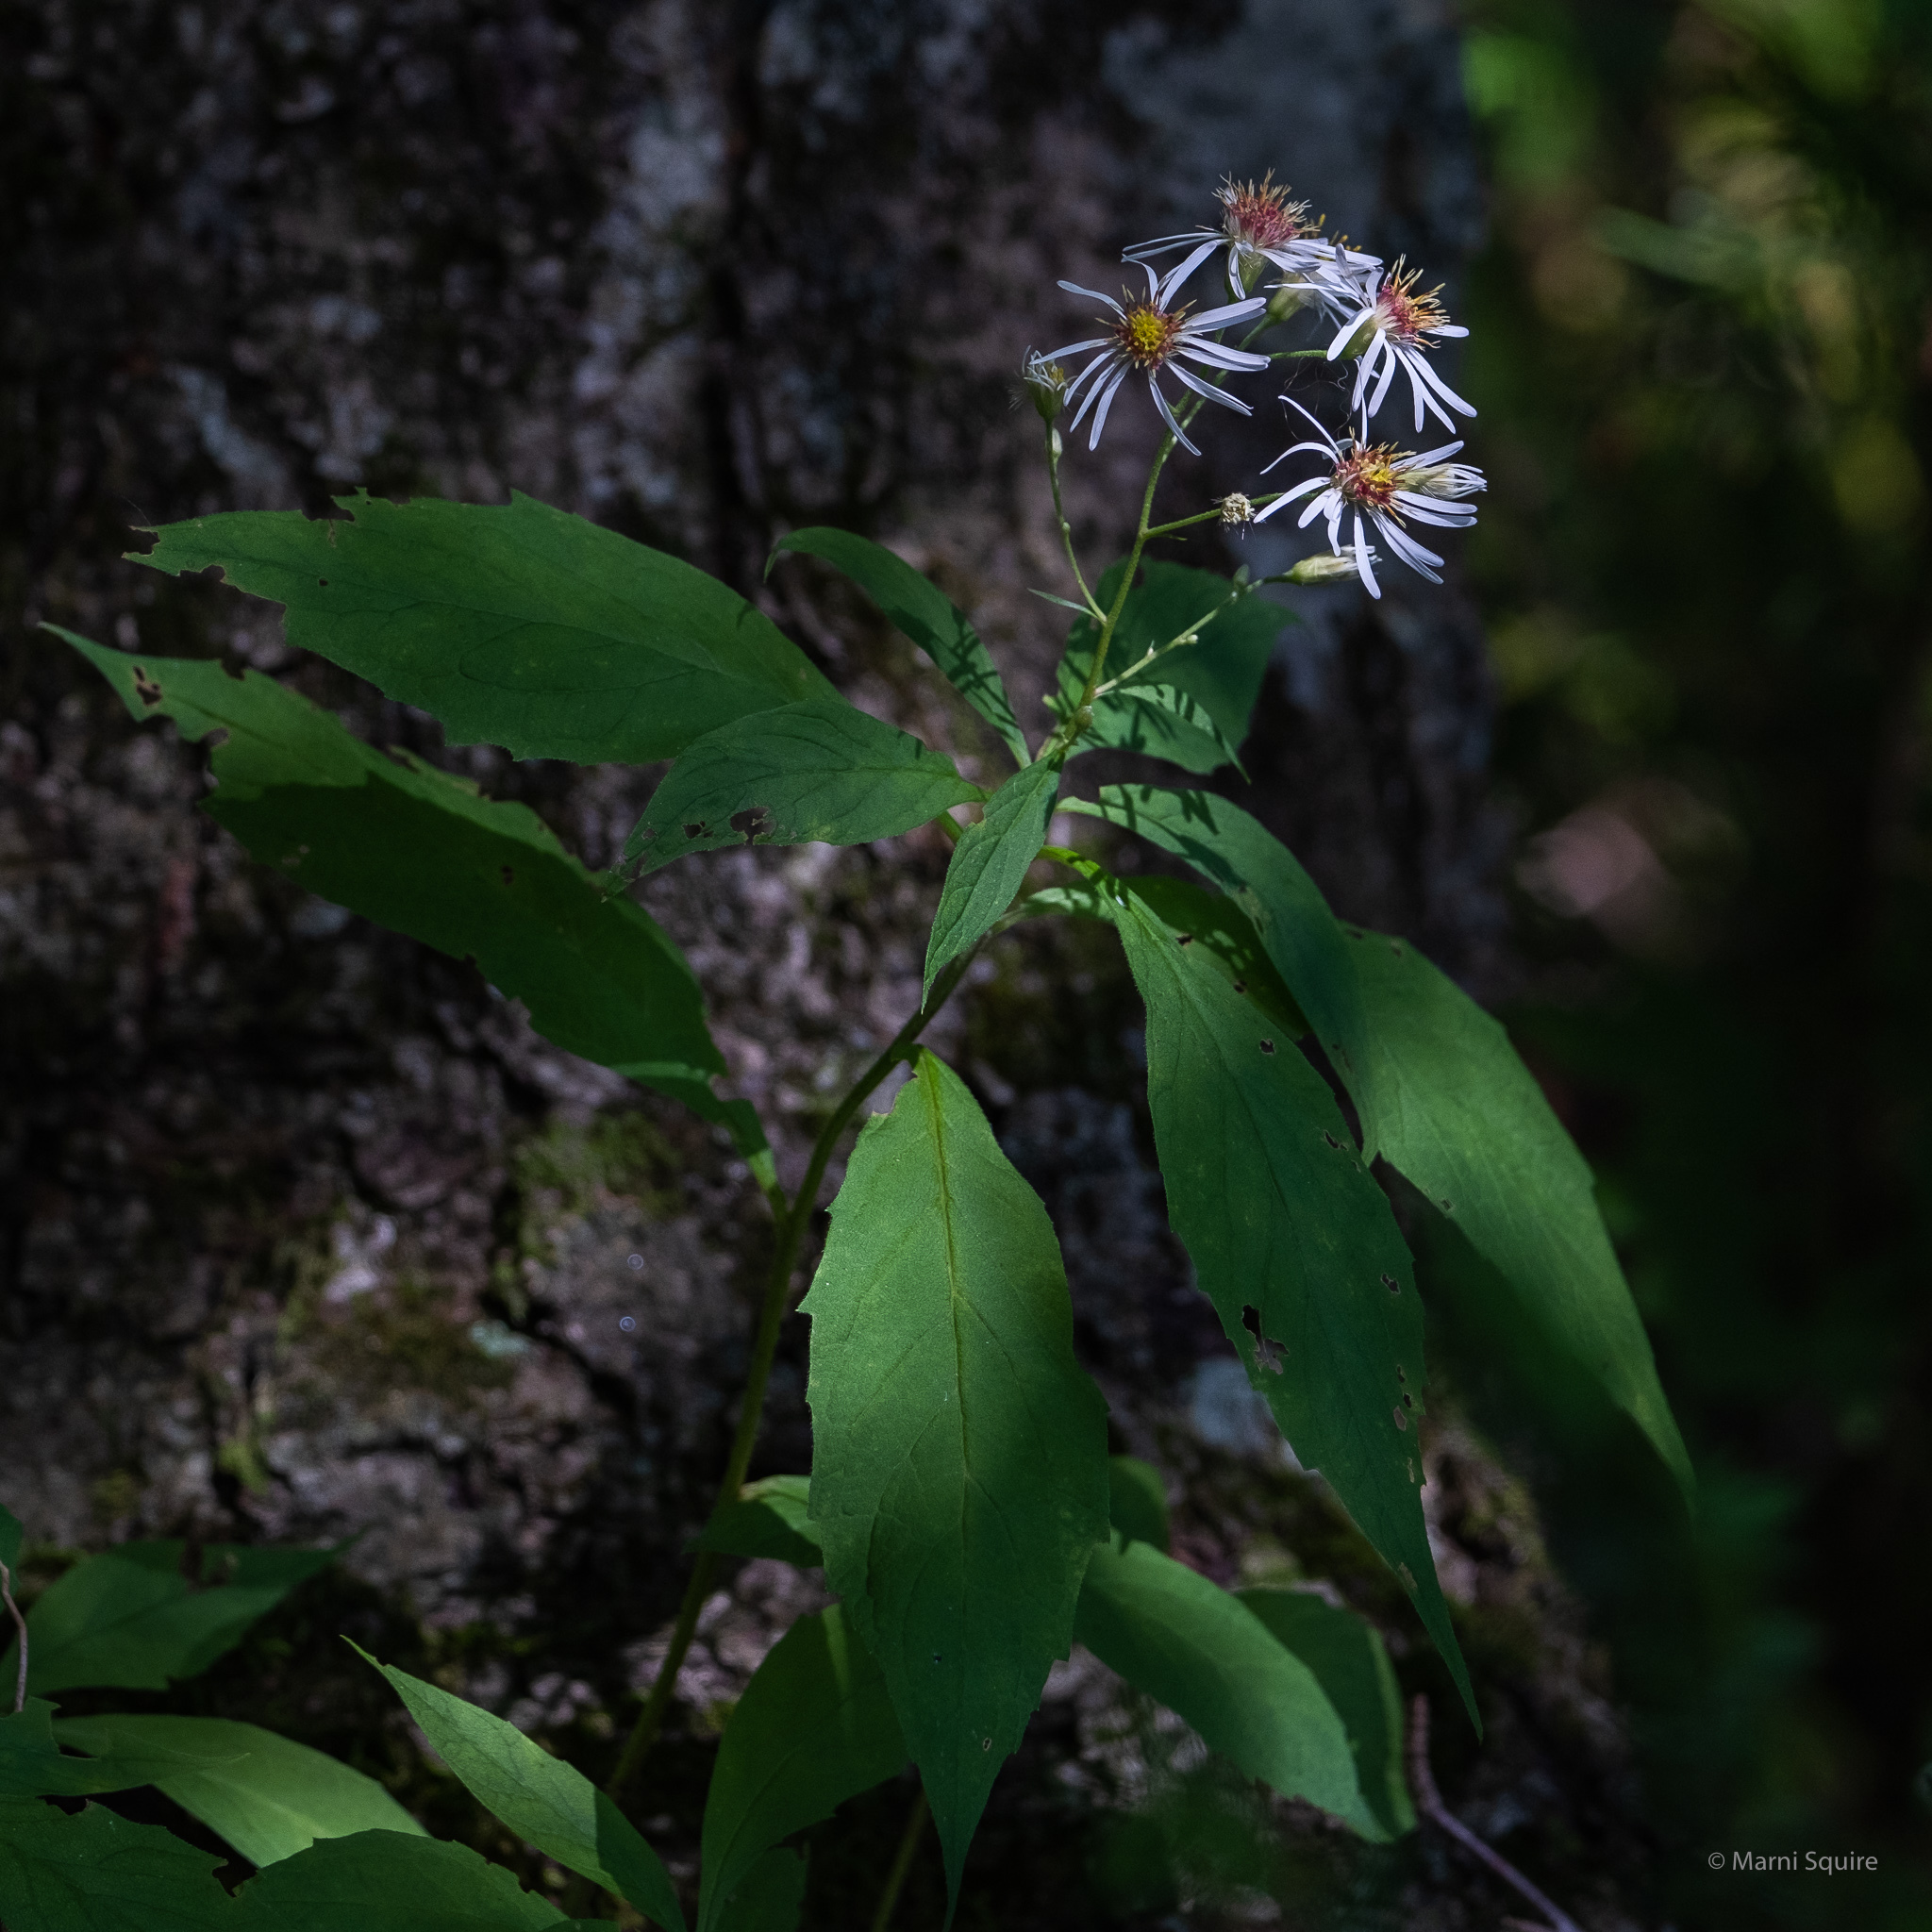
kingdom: Plantae
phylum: Tracheophyta
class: Magnoliopsida
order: Asterales
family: Asteraceae
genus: Oclemena
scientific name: Oclemena acuminata
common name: Mountain aster
